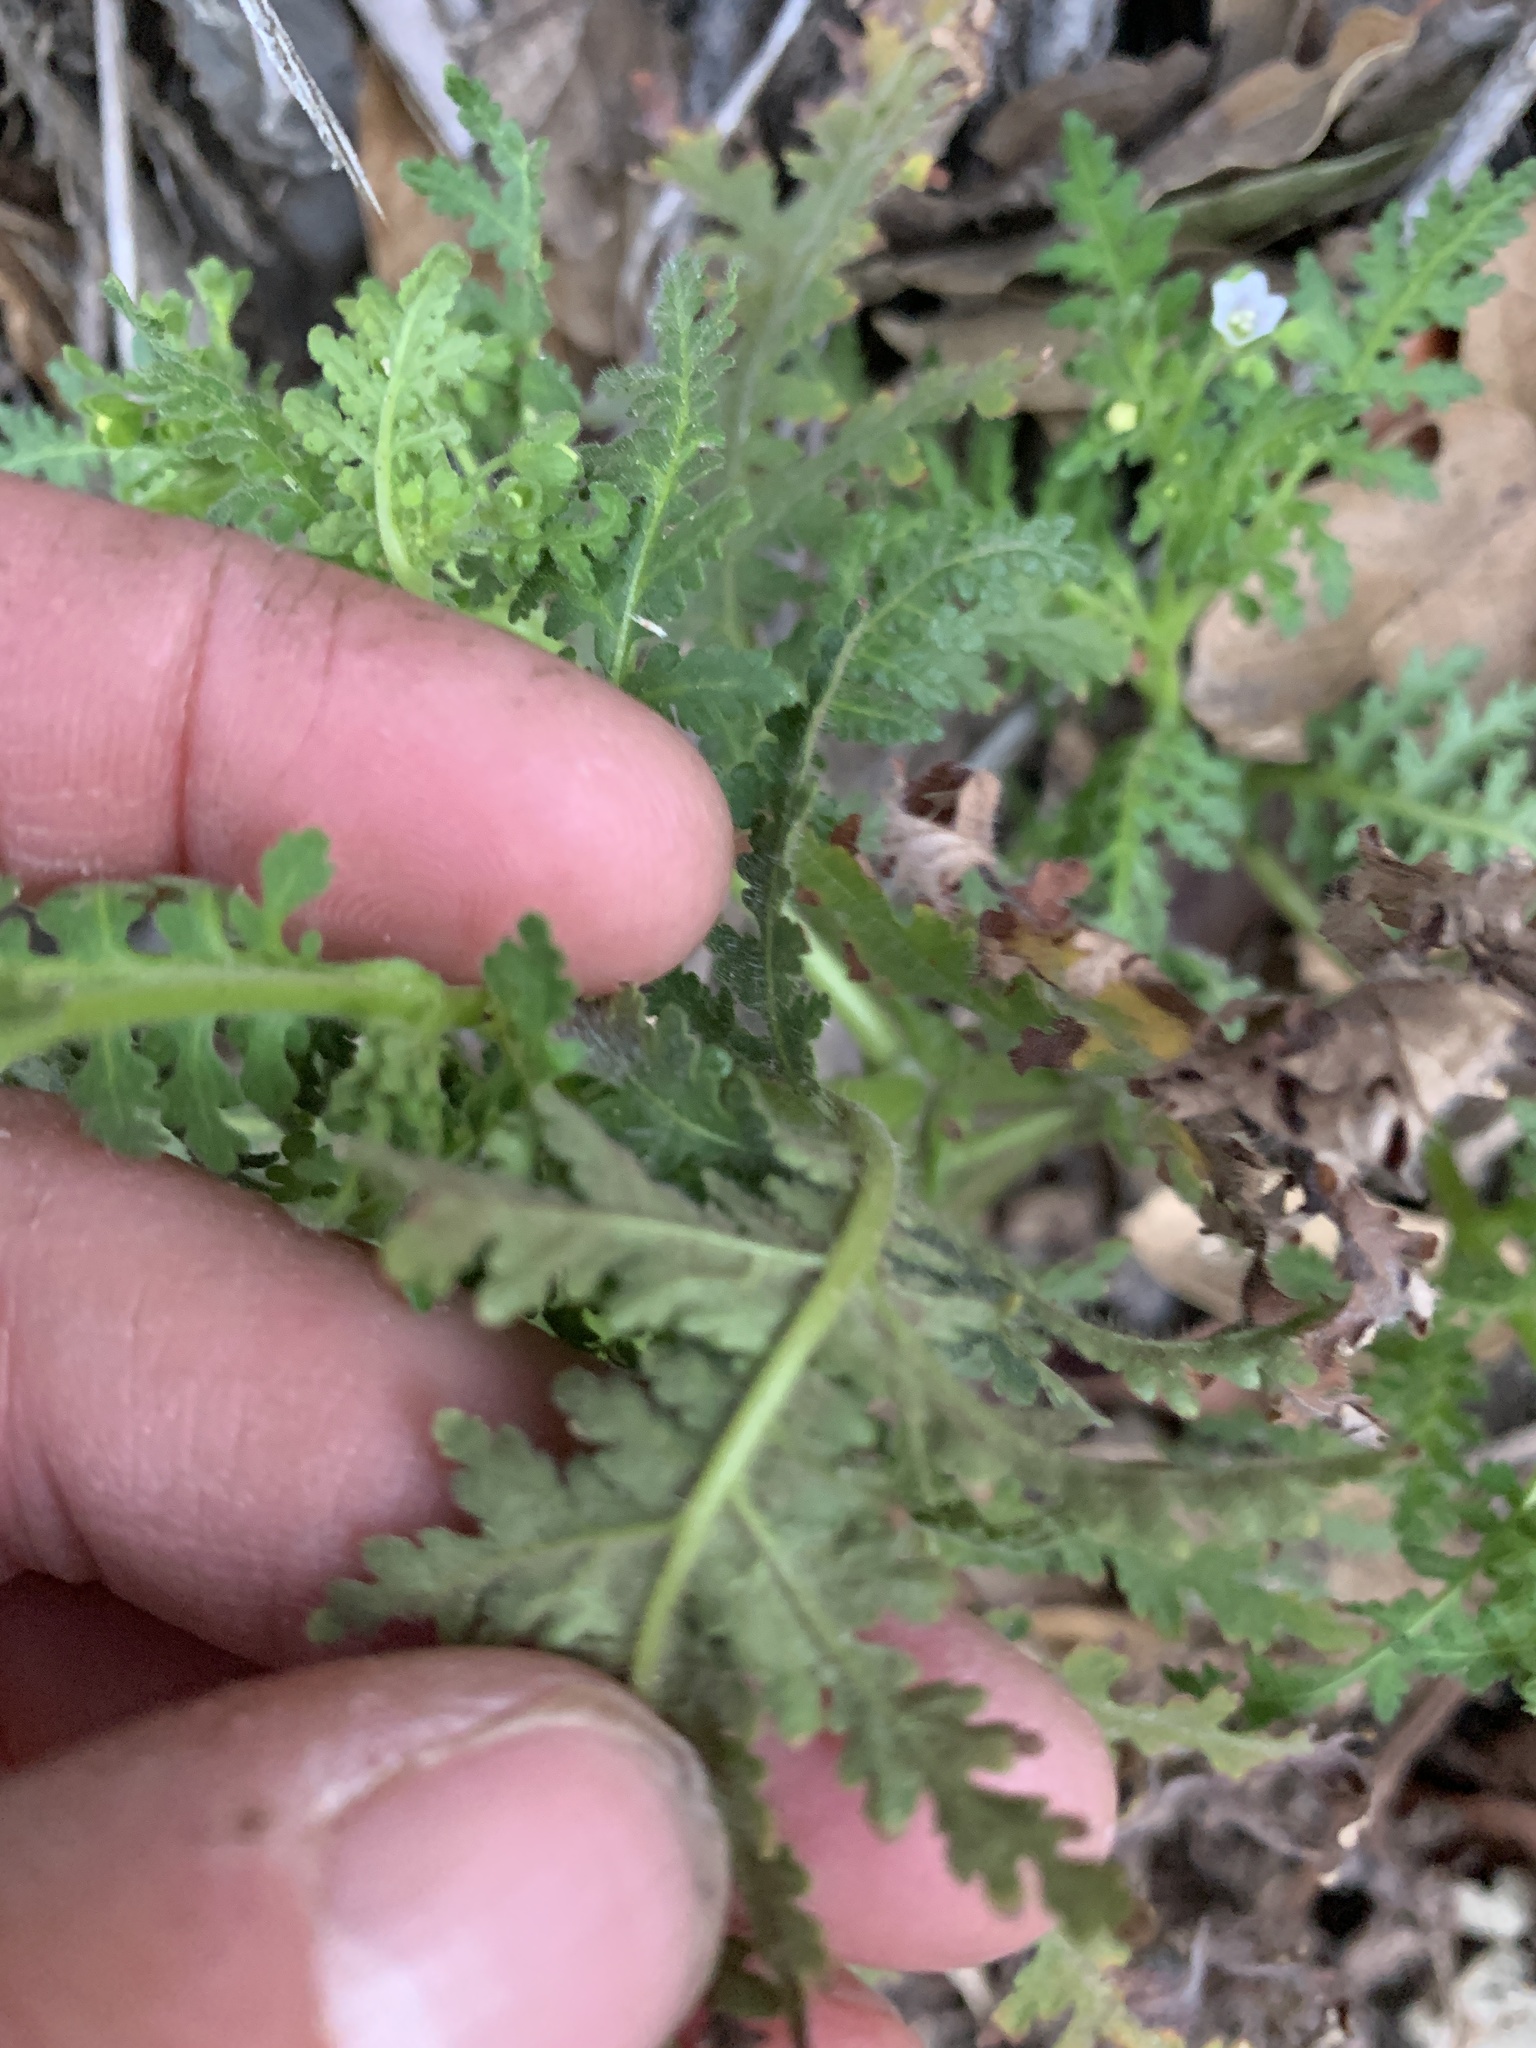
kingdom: Plantae
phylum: Tracheophyta
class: Magnoliopsida
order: Boraginales
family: Hydrophyllaceae
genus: Eucrypta
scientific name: Eucrypta chrysanthemifolia
